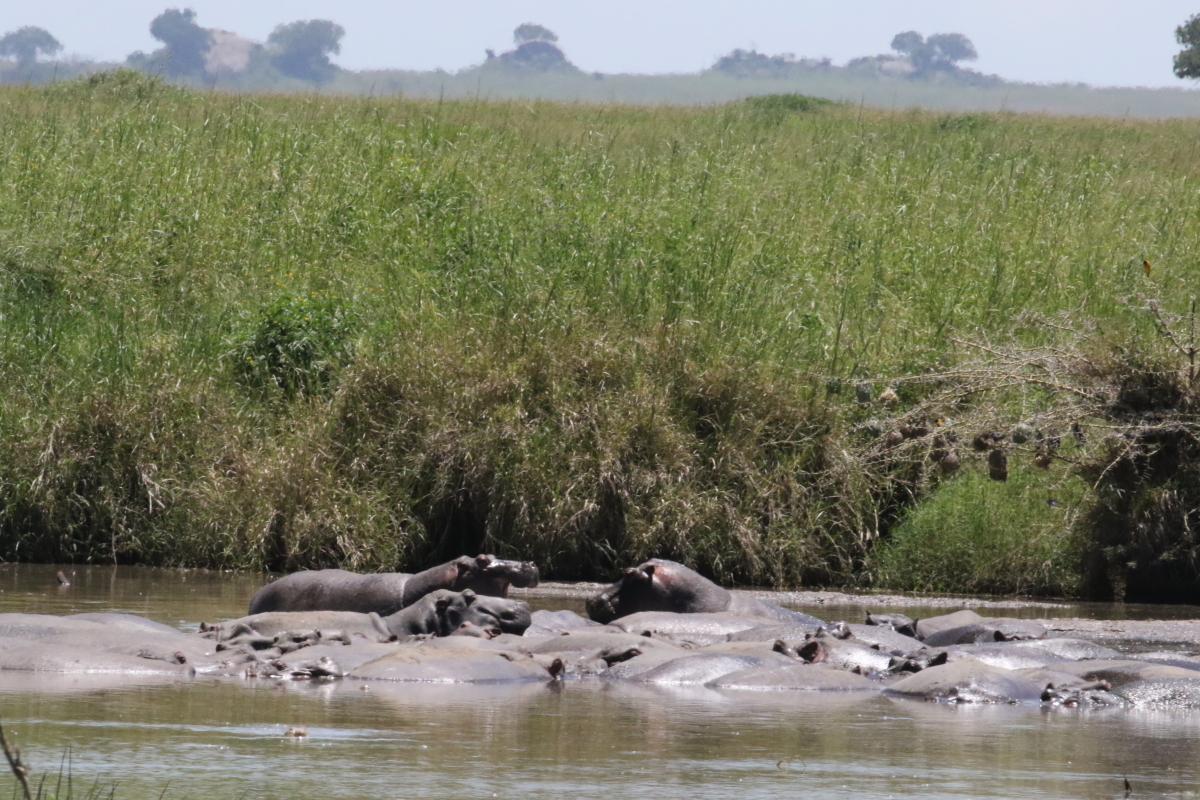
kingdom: Animalia
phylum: Chordata
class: Mammalia
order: Artiodactyla
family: Hippopotamidae
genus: Hippopotamus
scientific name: Hippopotamus amphibius
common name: Common hippopotamus
